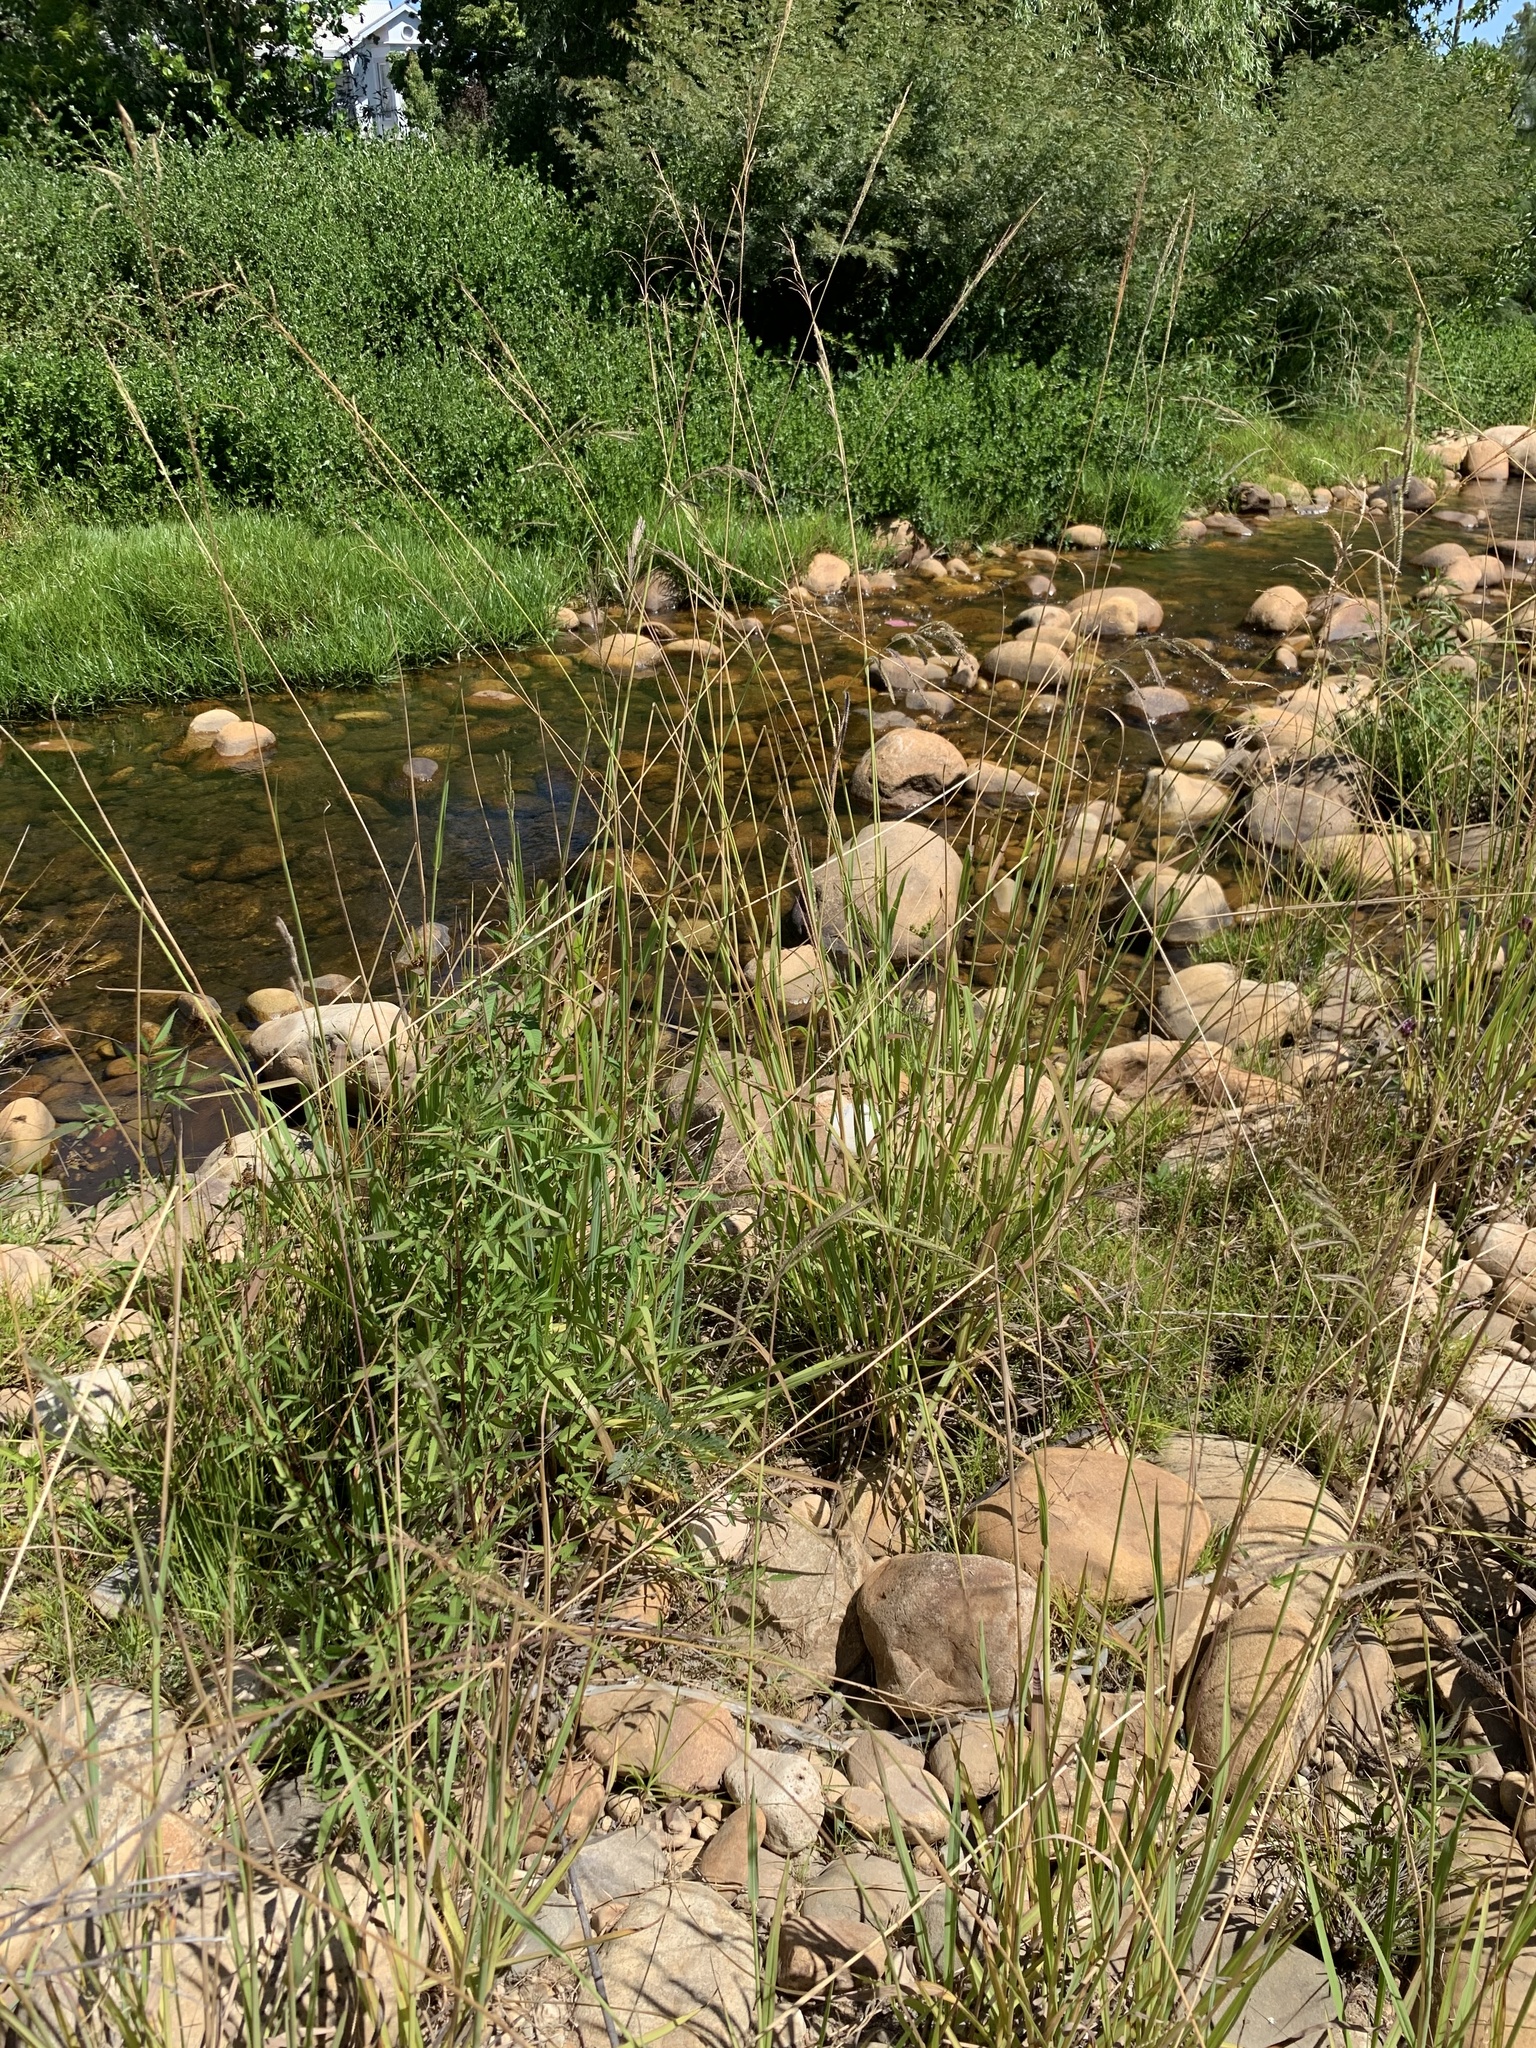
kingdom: Plantae
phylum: Tracheophyta
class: Liliopsida
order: Poales
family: Poaceae
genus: Paspalum
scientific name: Paspalum urvillei
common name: Vasey's grass
